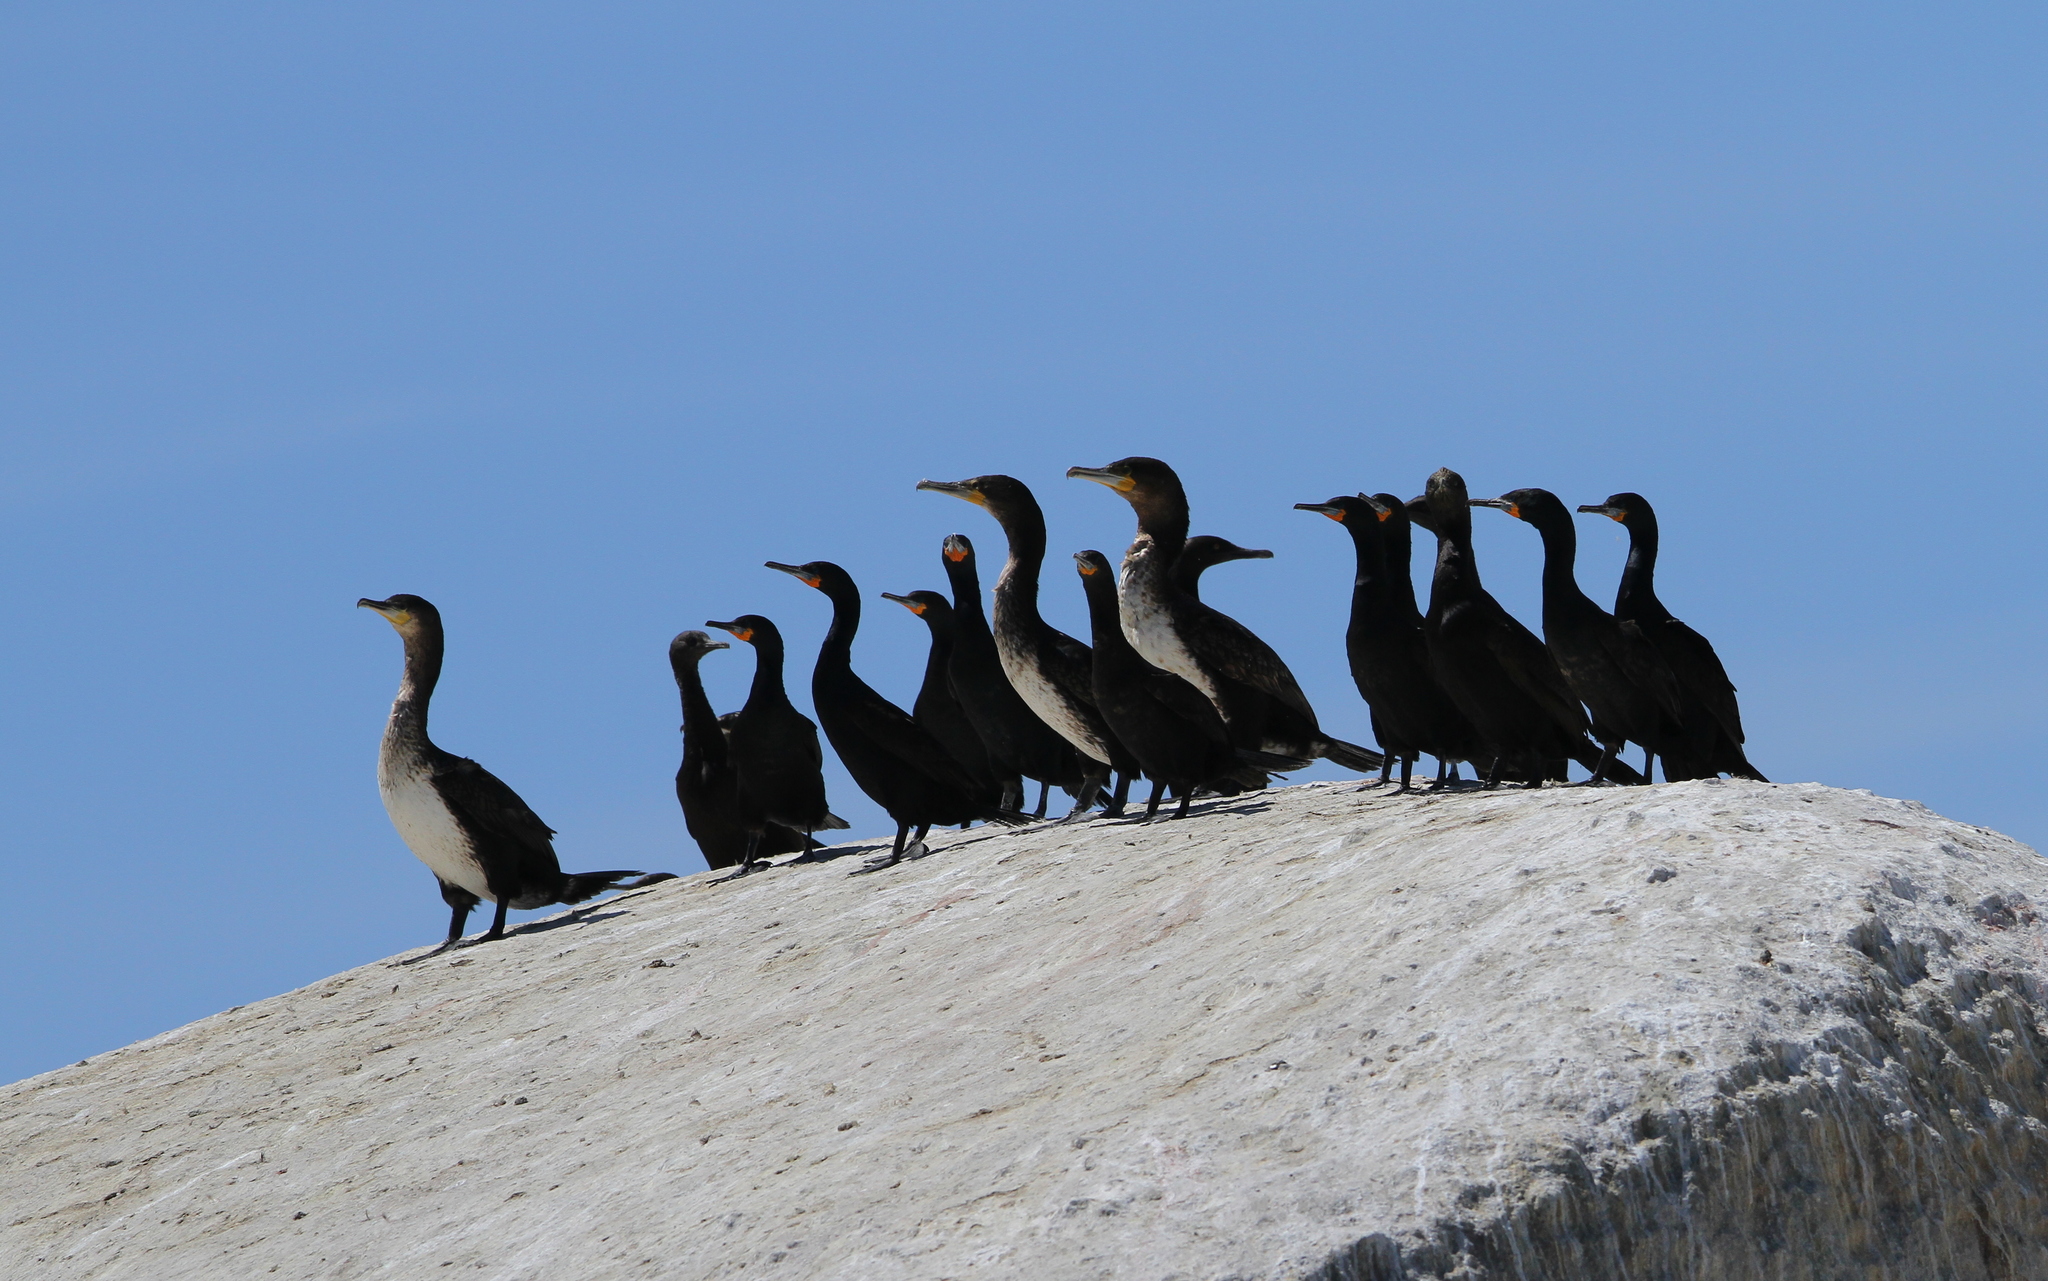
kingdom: Animalia
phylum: Chordata
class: Aves
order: Suliformes
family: Phalacrocoracidae
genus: Phalacrocorax
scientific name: Phalacrocorax carbo
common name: Great cormorant
